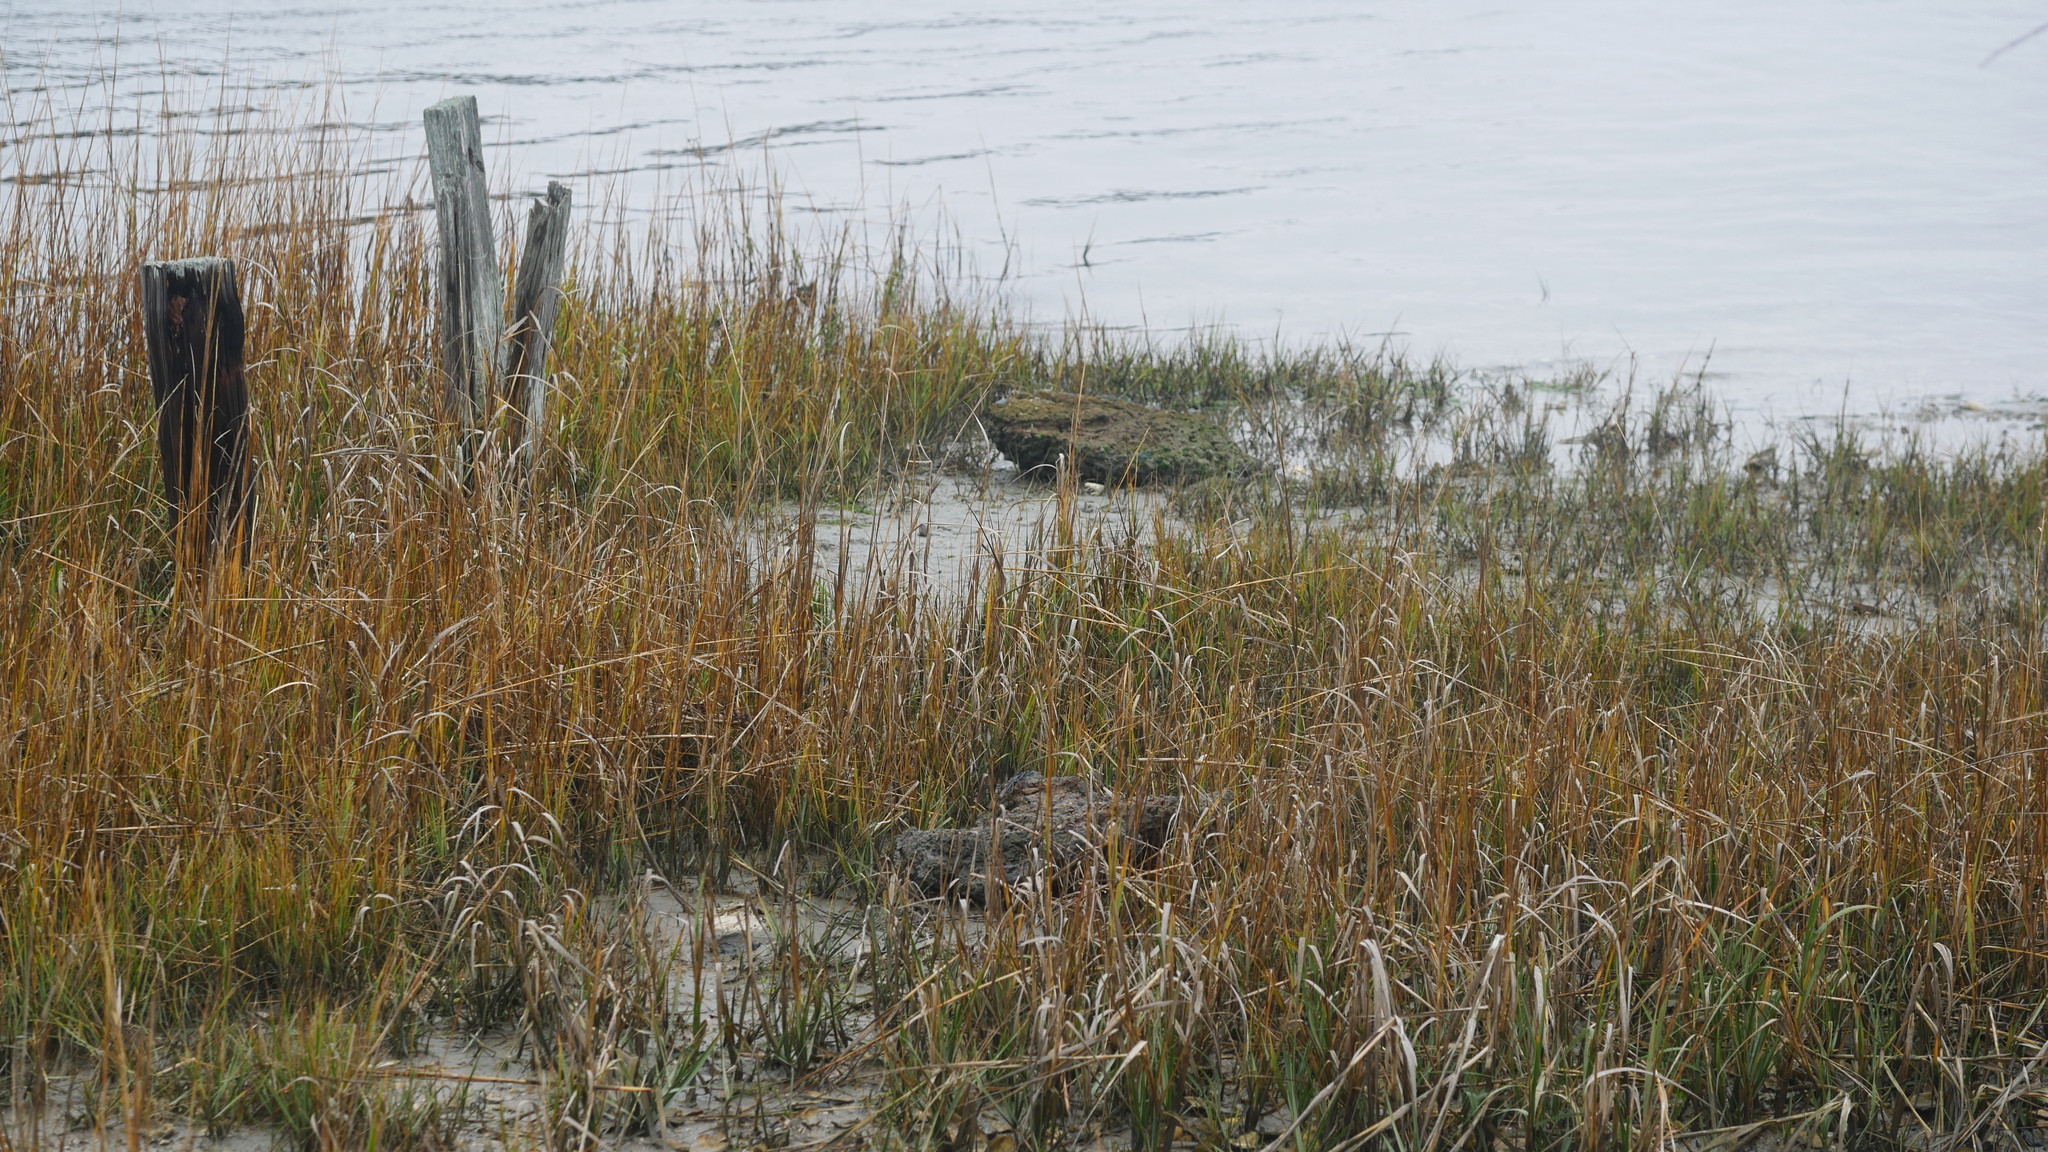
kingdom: Animalia
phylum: Arthropoda
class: Malacostraca
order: Decapoda
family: Varunidae
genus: Hemigrapsus
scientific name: Hemigrapsus sanguineus
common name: Asian shore crab
